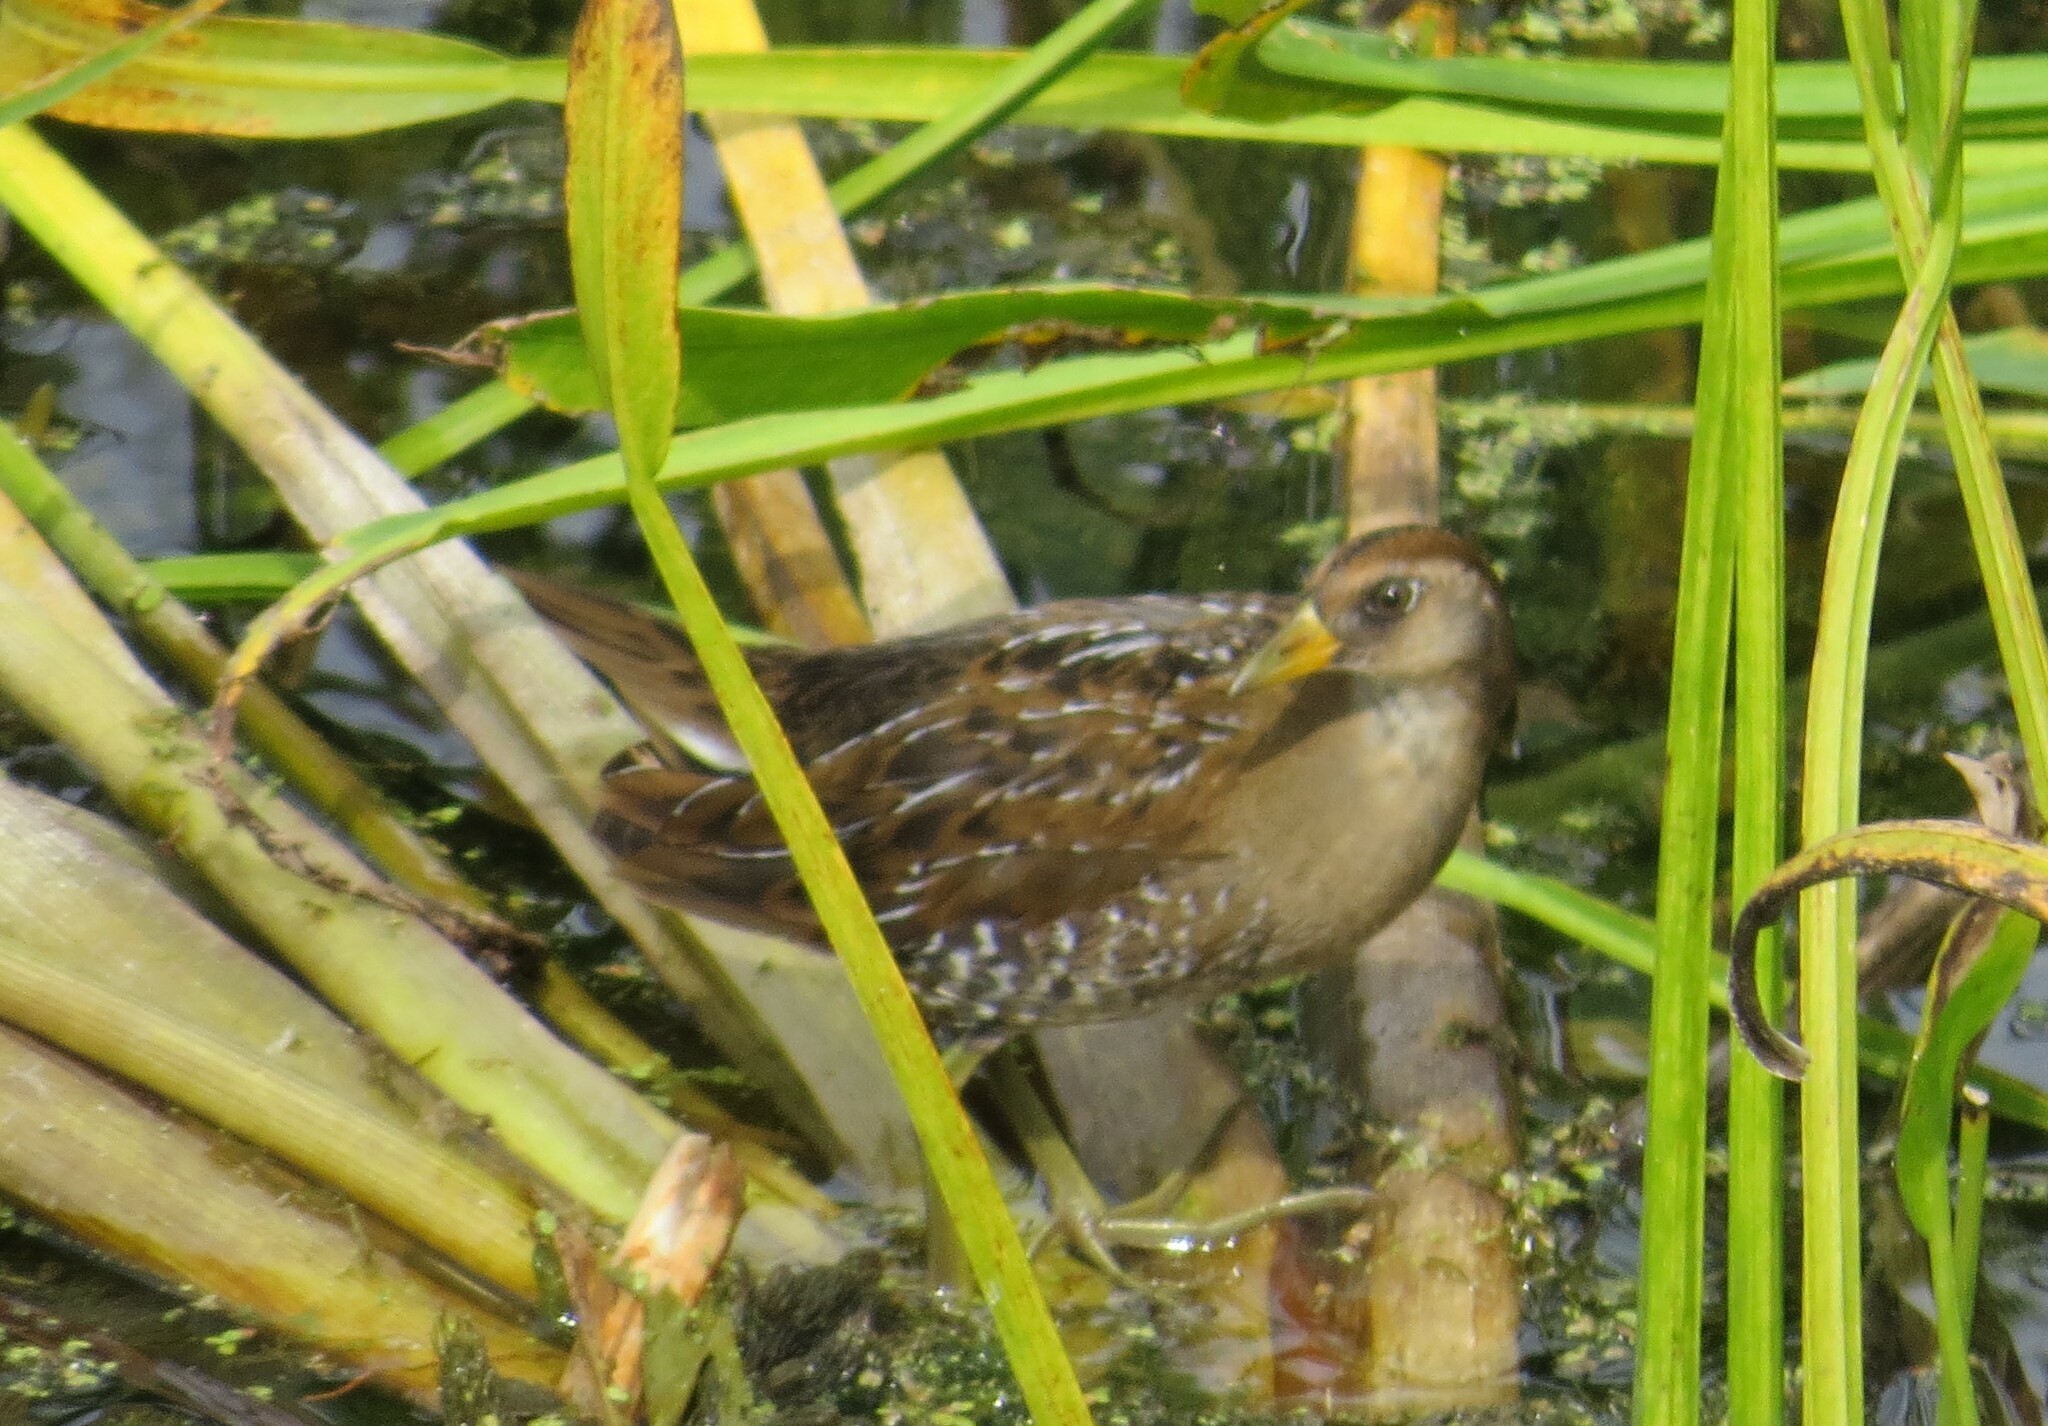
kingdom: Animalia
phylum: Chordata
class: Aves
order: Gruiformes
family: Rallidae
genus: Porzana
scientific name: Porzana carolina
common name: Sora
